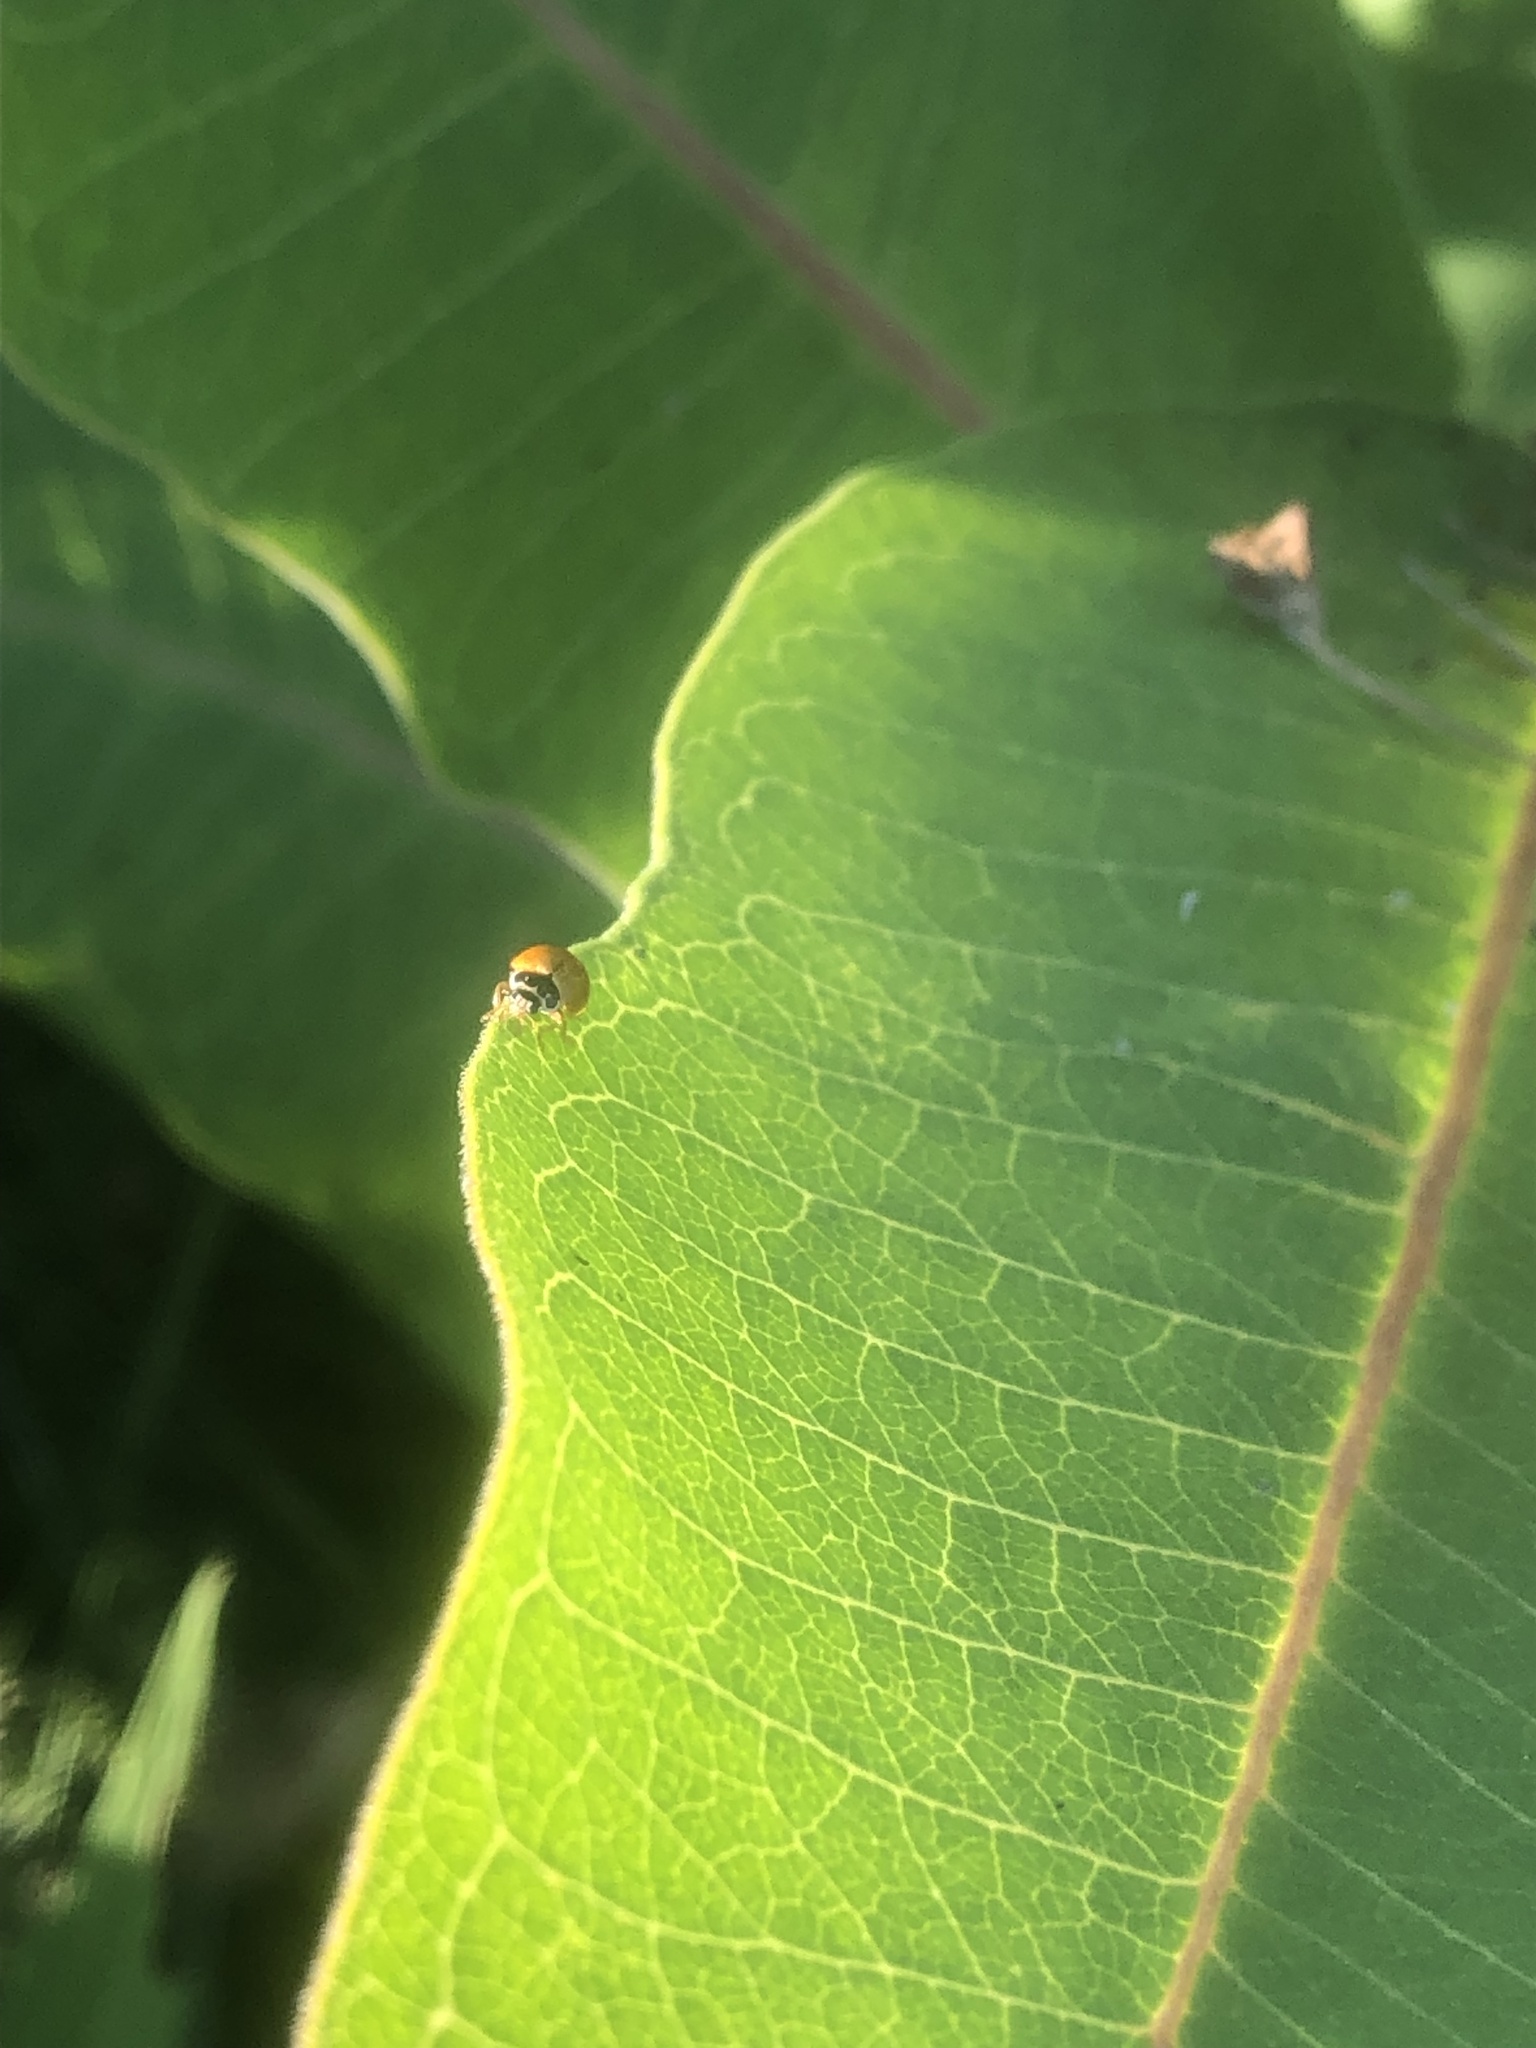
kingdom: Animalia
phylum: Arthropoda
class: Insecta
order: Coleoptera
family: Coccinellidae
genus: Cycloneda
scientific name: Cycloneda munda
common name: Polished lady beetle
